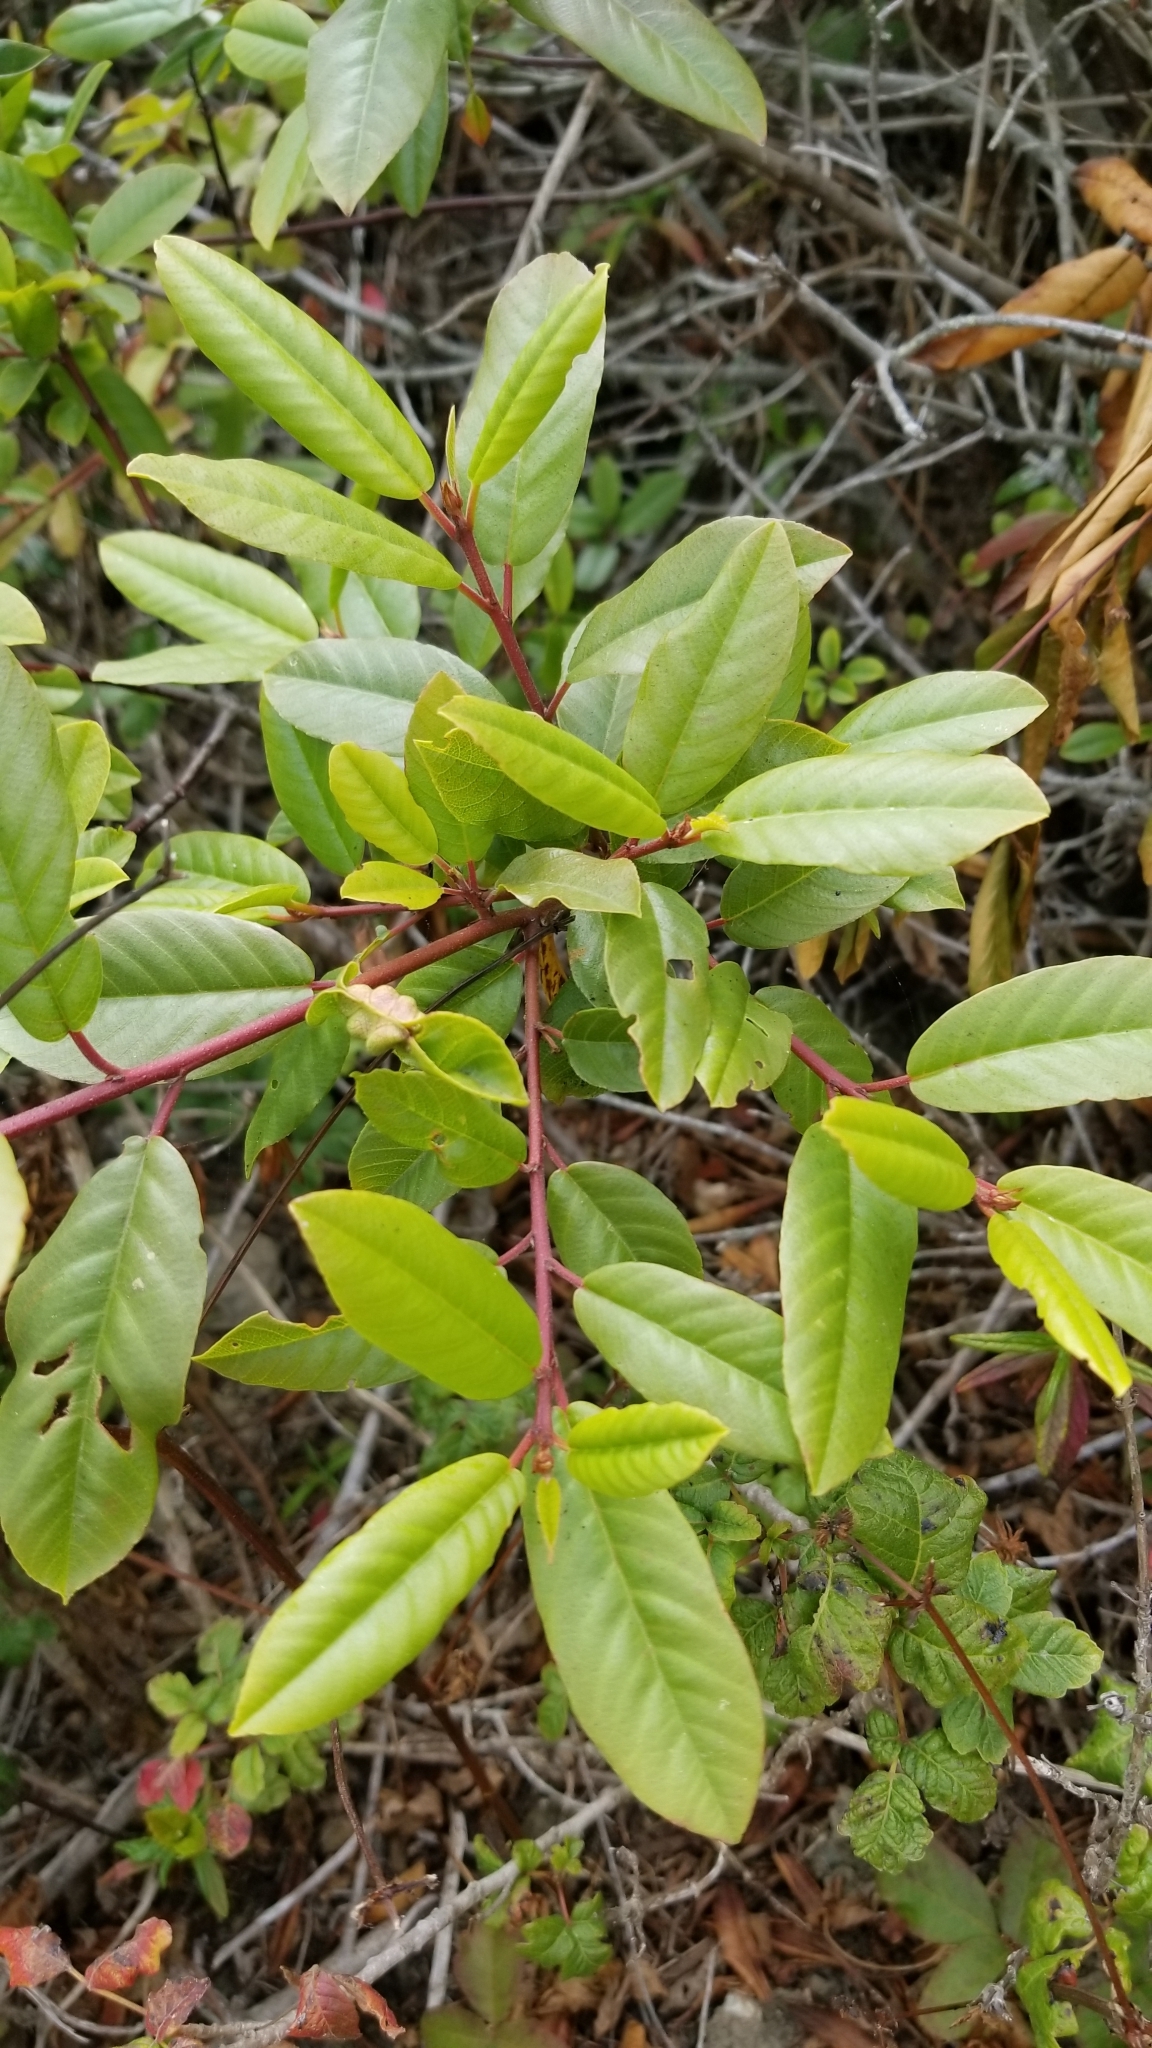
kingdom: Plantae
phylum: Tracheophyta
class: Magnoliopsida
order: Rosales
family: Rhamnaceae
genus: Frangula
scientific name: Frangula californica
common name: California buckthorn
